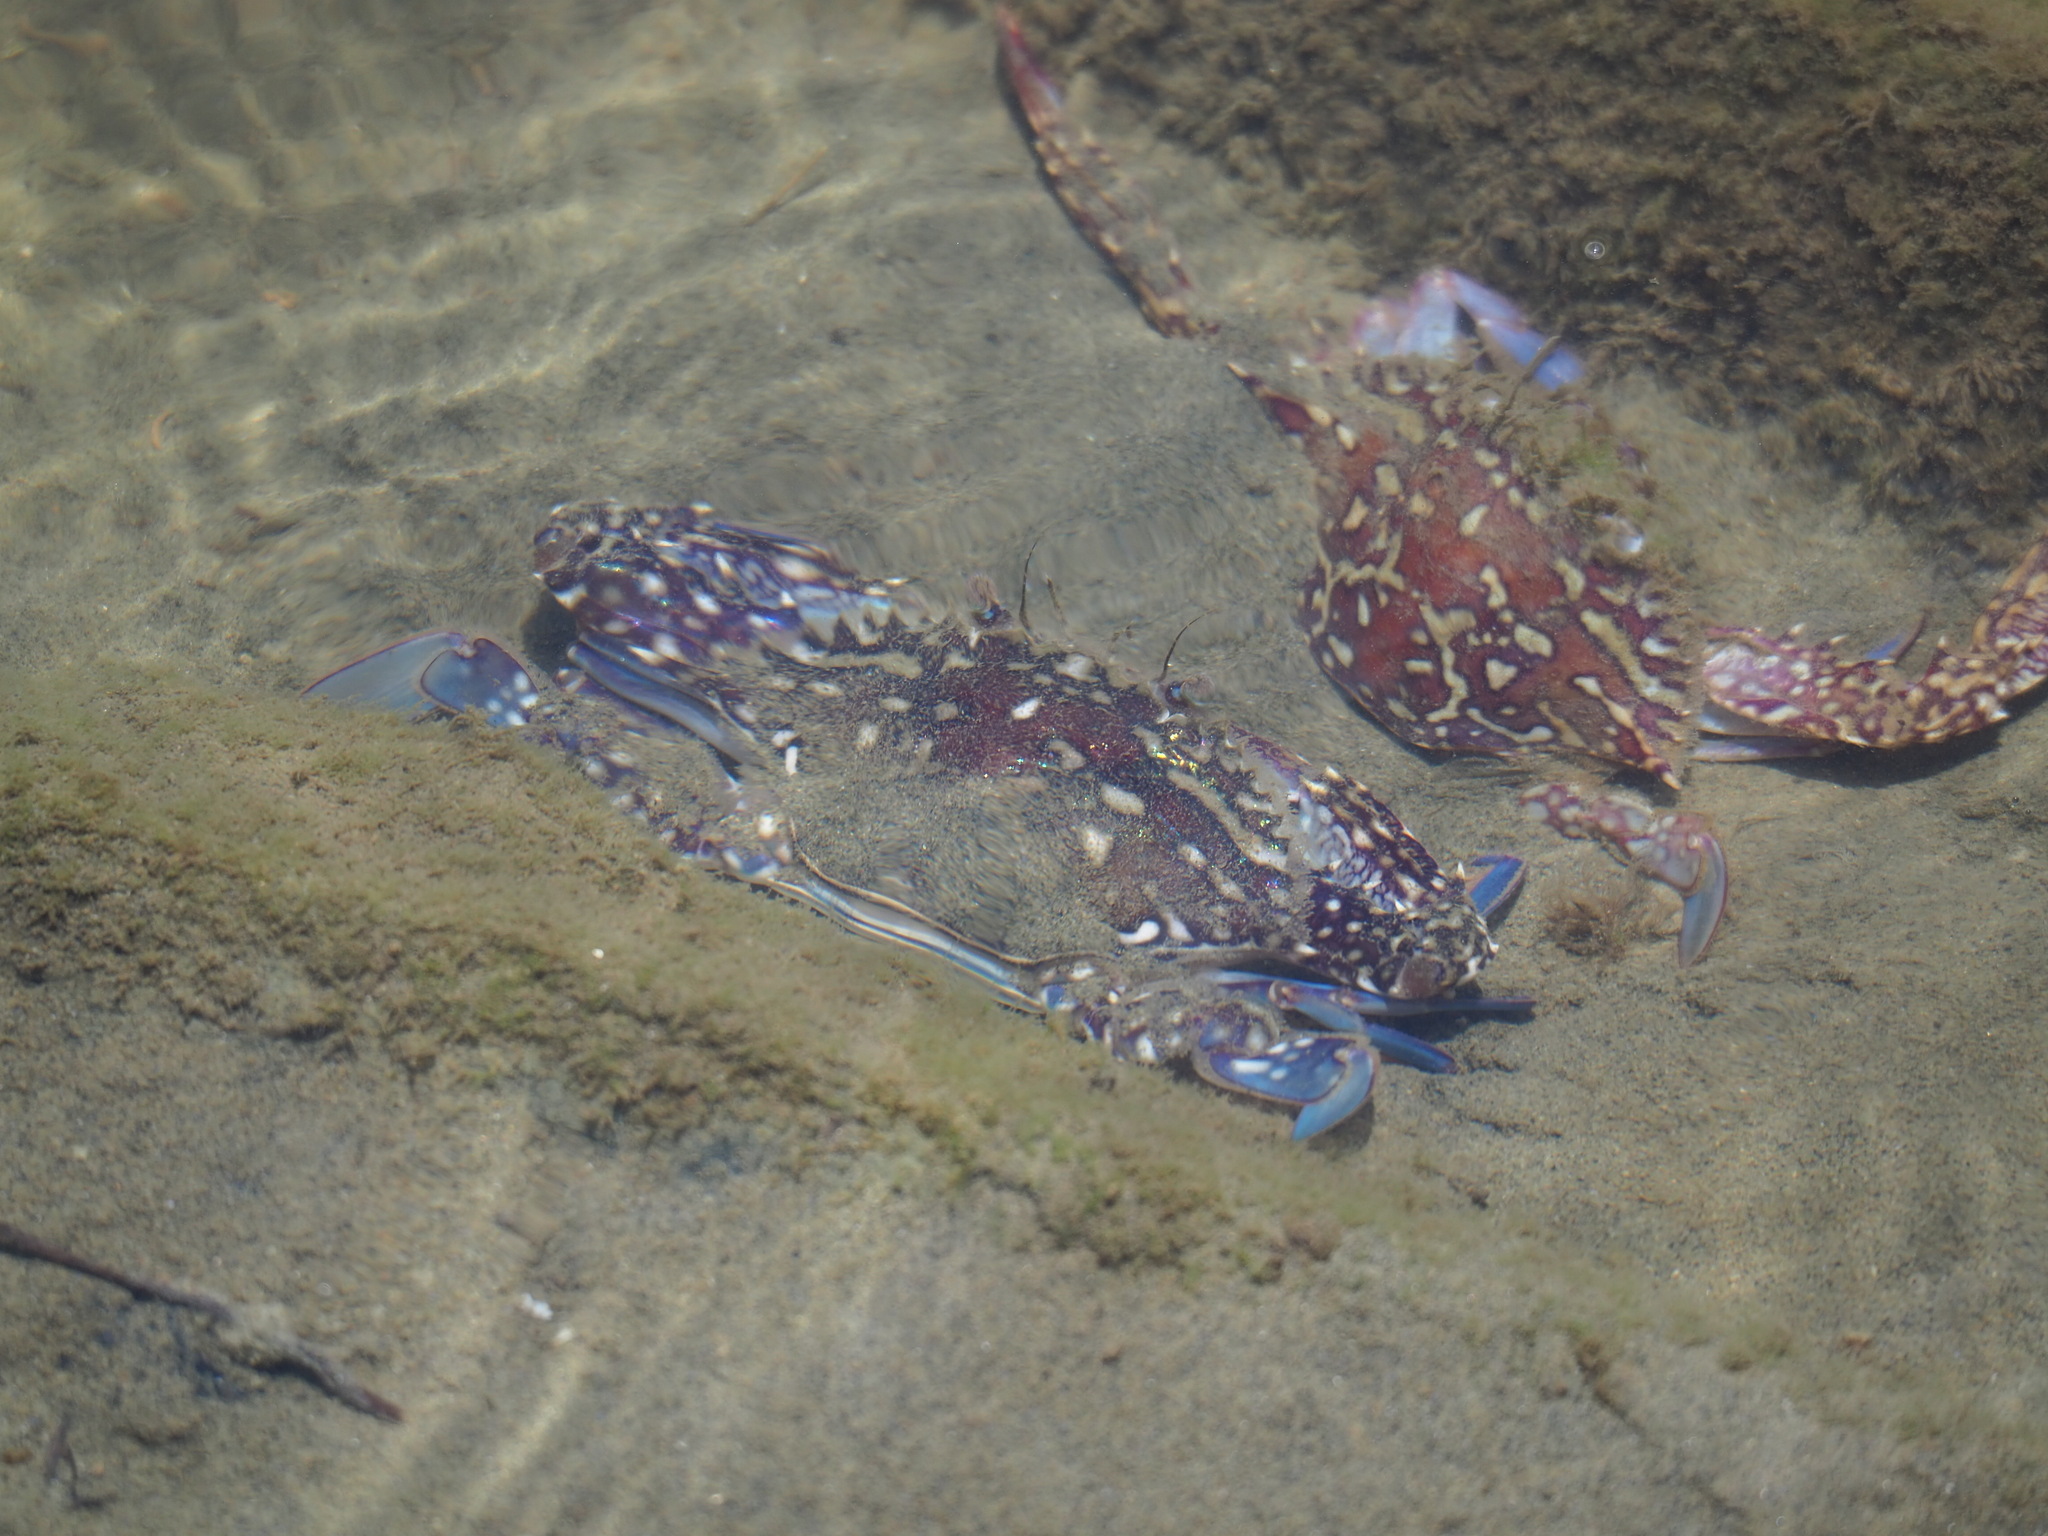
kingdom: Animalia
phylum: Arthropoda
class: Malacostraca
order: Decapoda
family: Portunidae
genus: Portunus
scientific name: Portunus pelagicus
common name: Blue swimming crab
